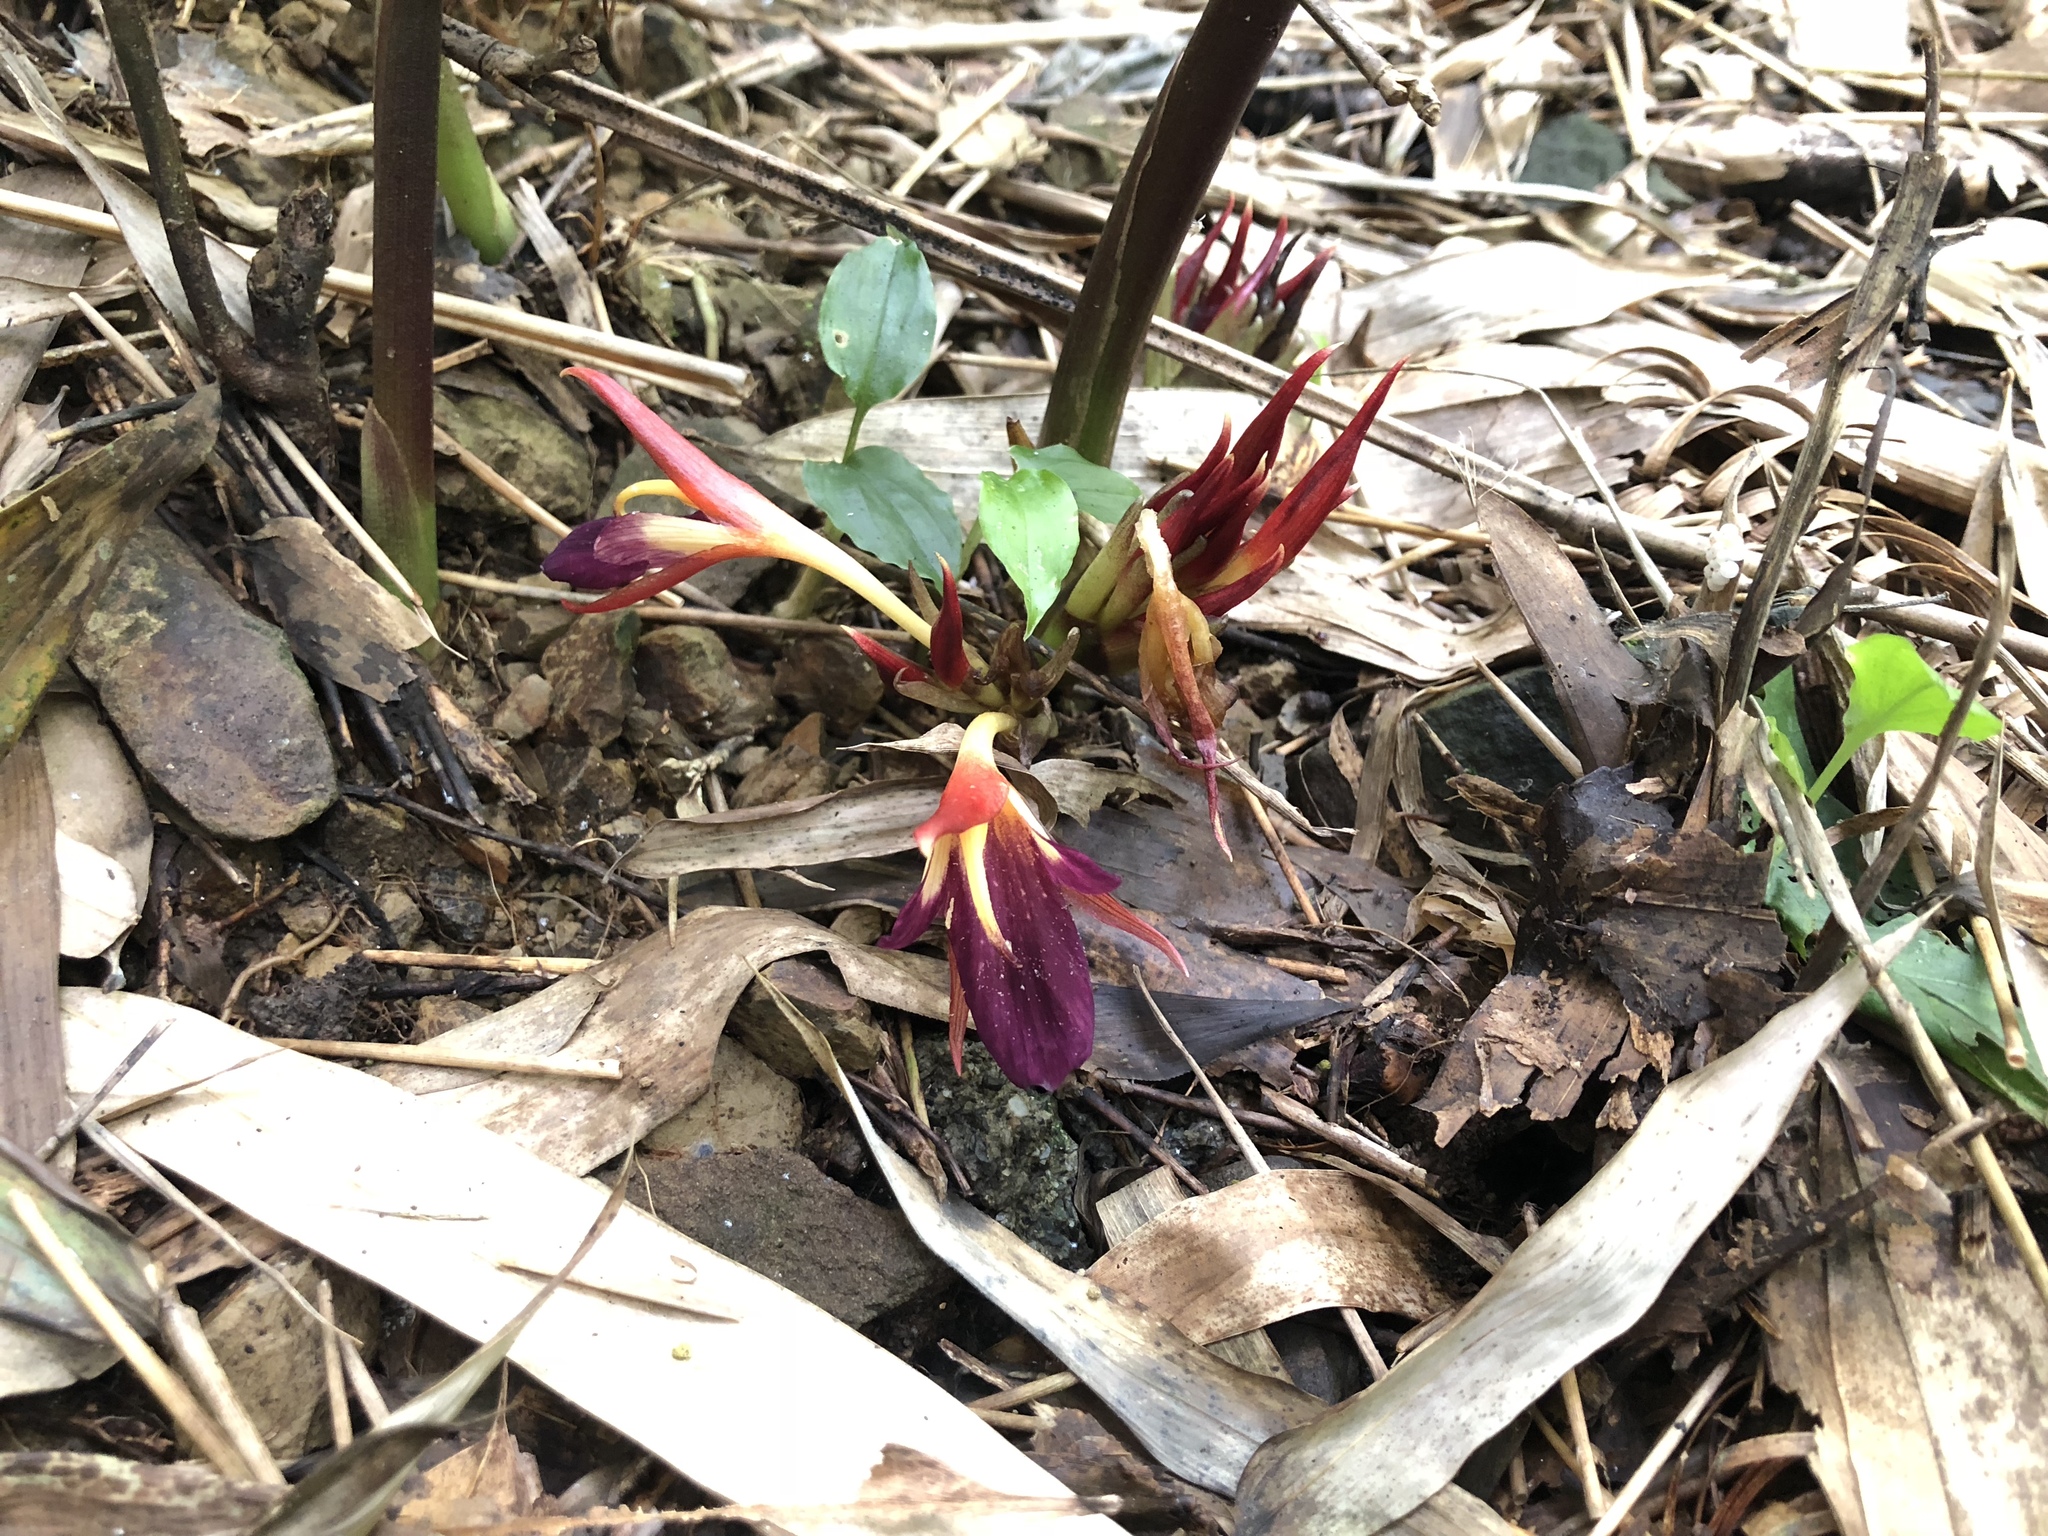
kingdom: Plantae
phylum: Tracheophyta
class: Liliopsida
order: Zingiberales
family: Zingiberaceae
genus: Zingiber
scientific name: Zingiber kawagoii
